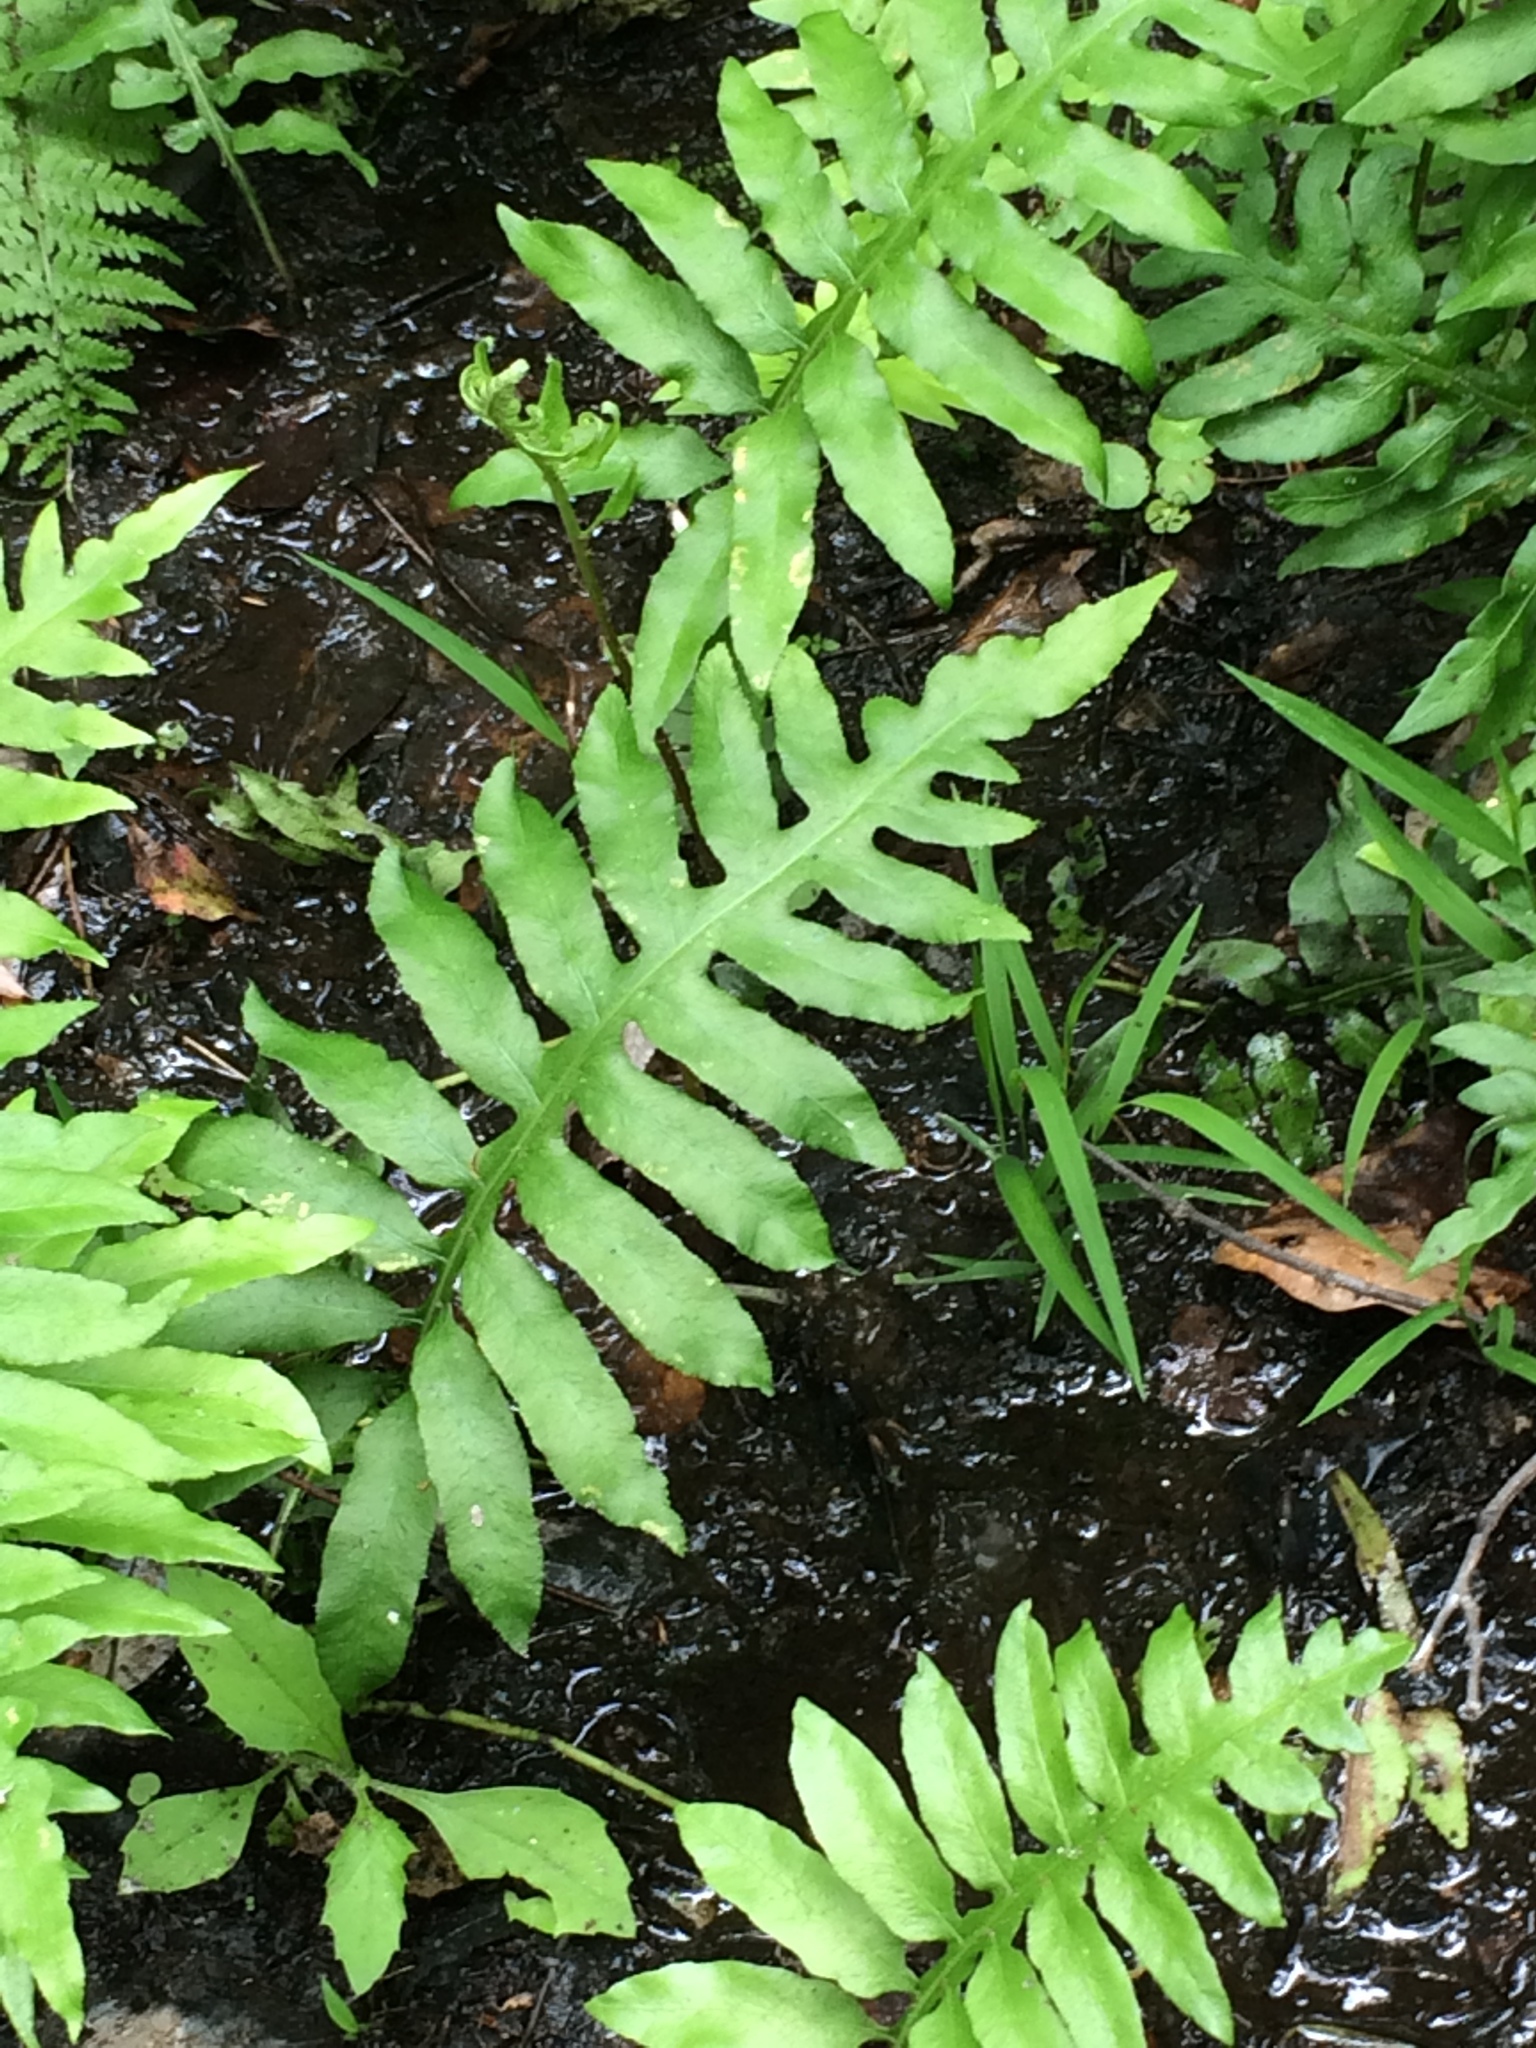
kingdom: Plantae
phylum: Tracheophyta
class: Polypodiopsida
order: Polypodiales
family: Blechnaceae
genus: Lorinseria
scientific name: Lorinseria areolata
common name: Dwarf chain fern
